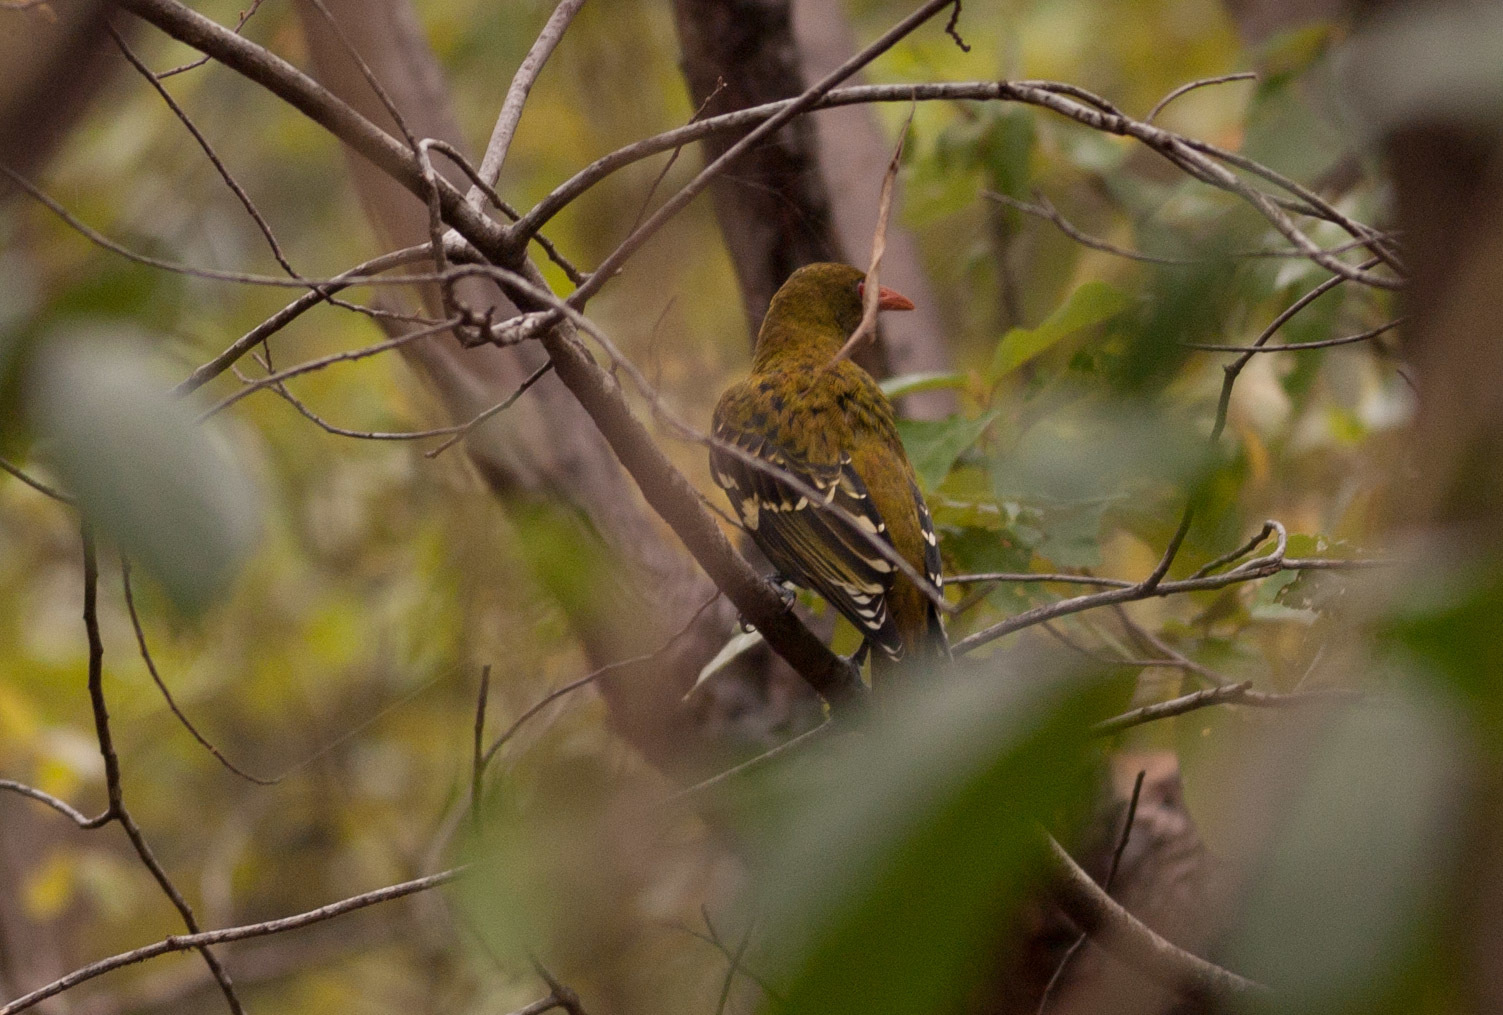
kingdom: Animalia
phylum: Chordata
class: Aves
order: Passeriformes
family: Oriolidae
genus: Oriolus
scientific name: Oriolus flavocinctus
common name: Green oriole
